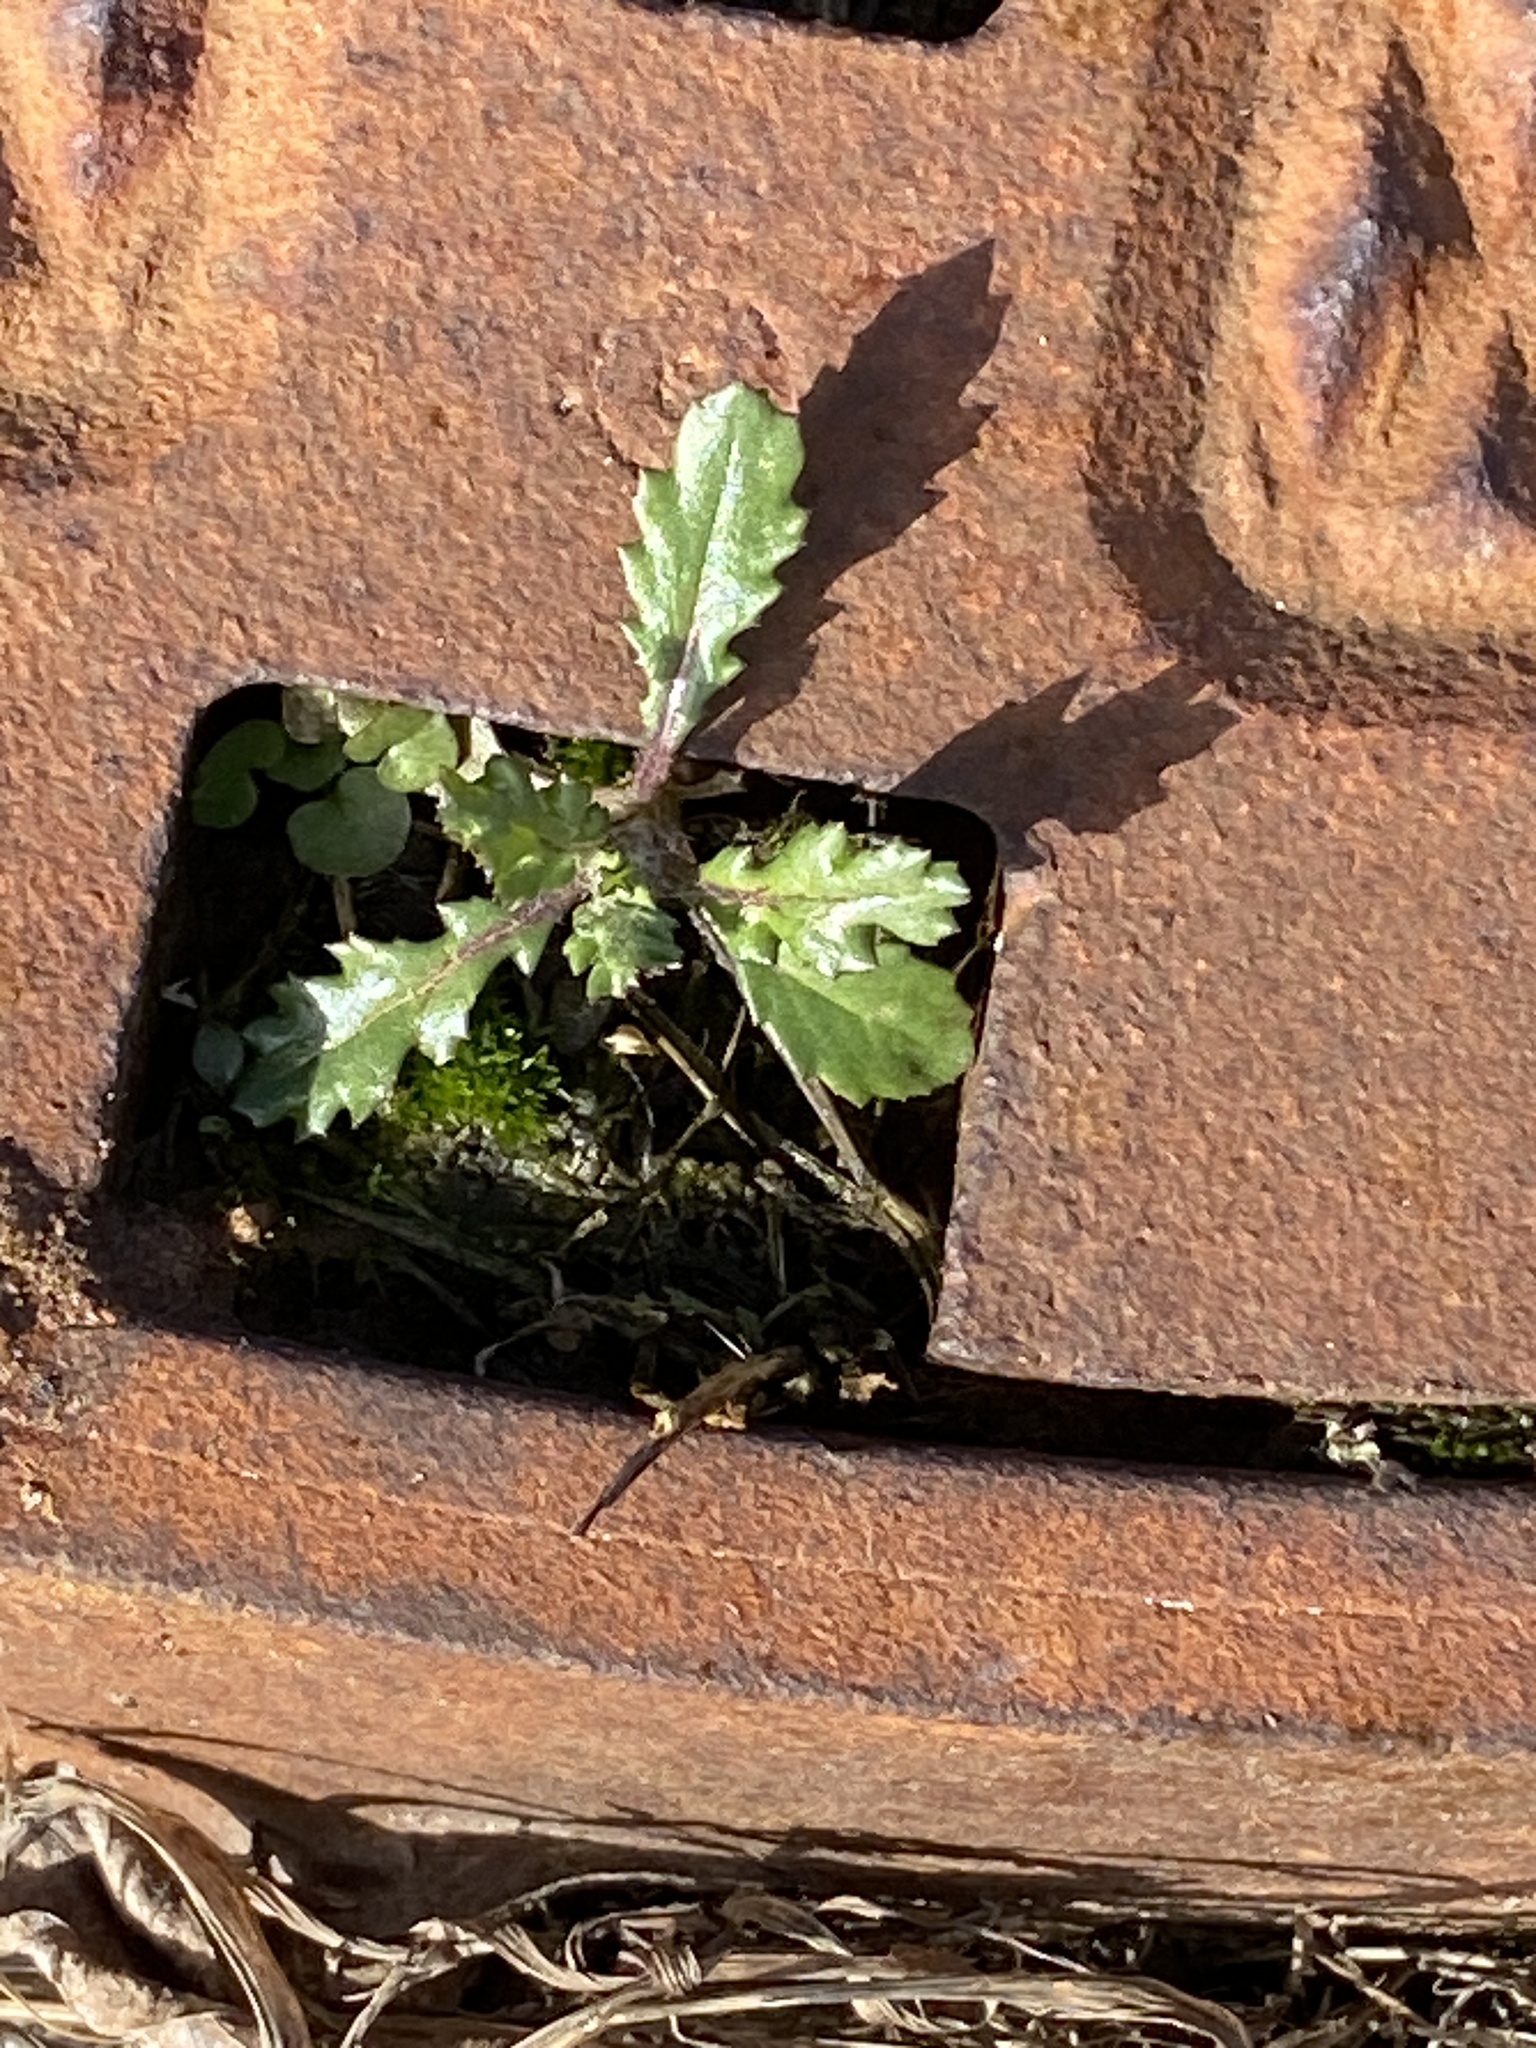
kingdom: Plantae
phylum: Tracheophyta
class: Magnoliopsida
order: Asterales
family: Asteraceae
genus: Senecio
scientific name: Senecio vulgaris
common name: Old-man-in-the-spring
